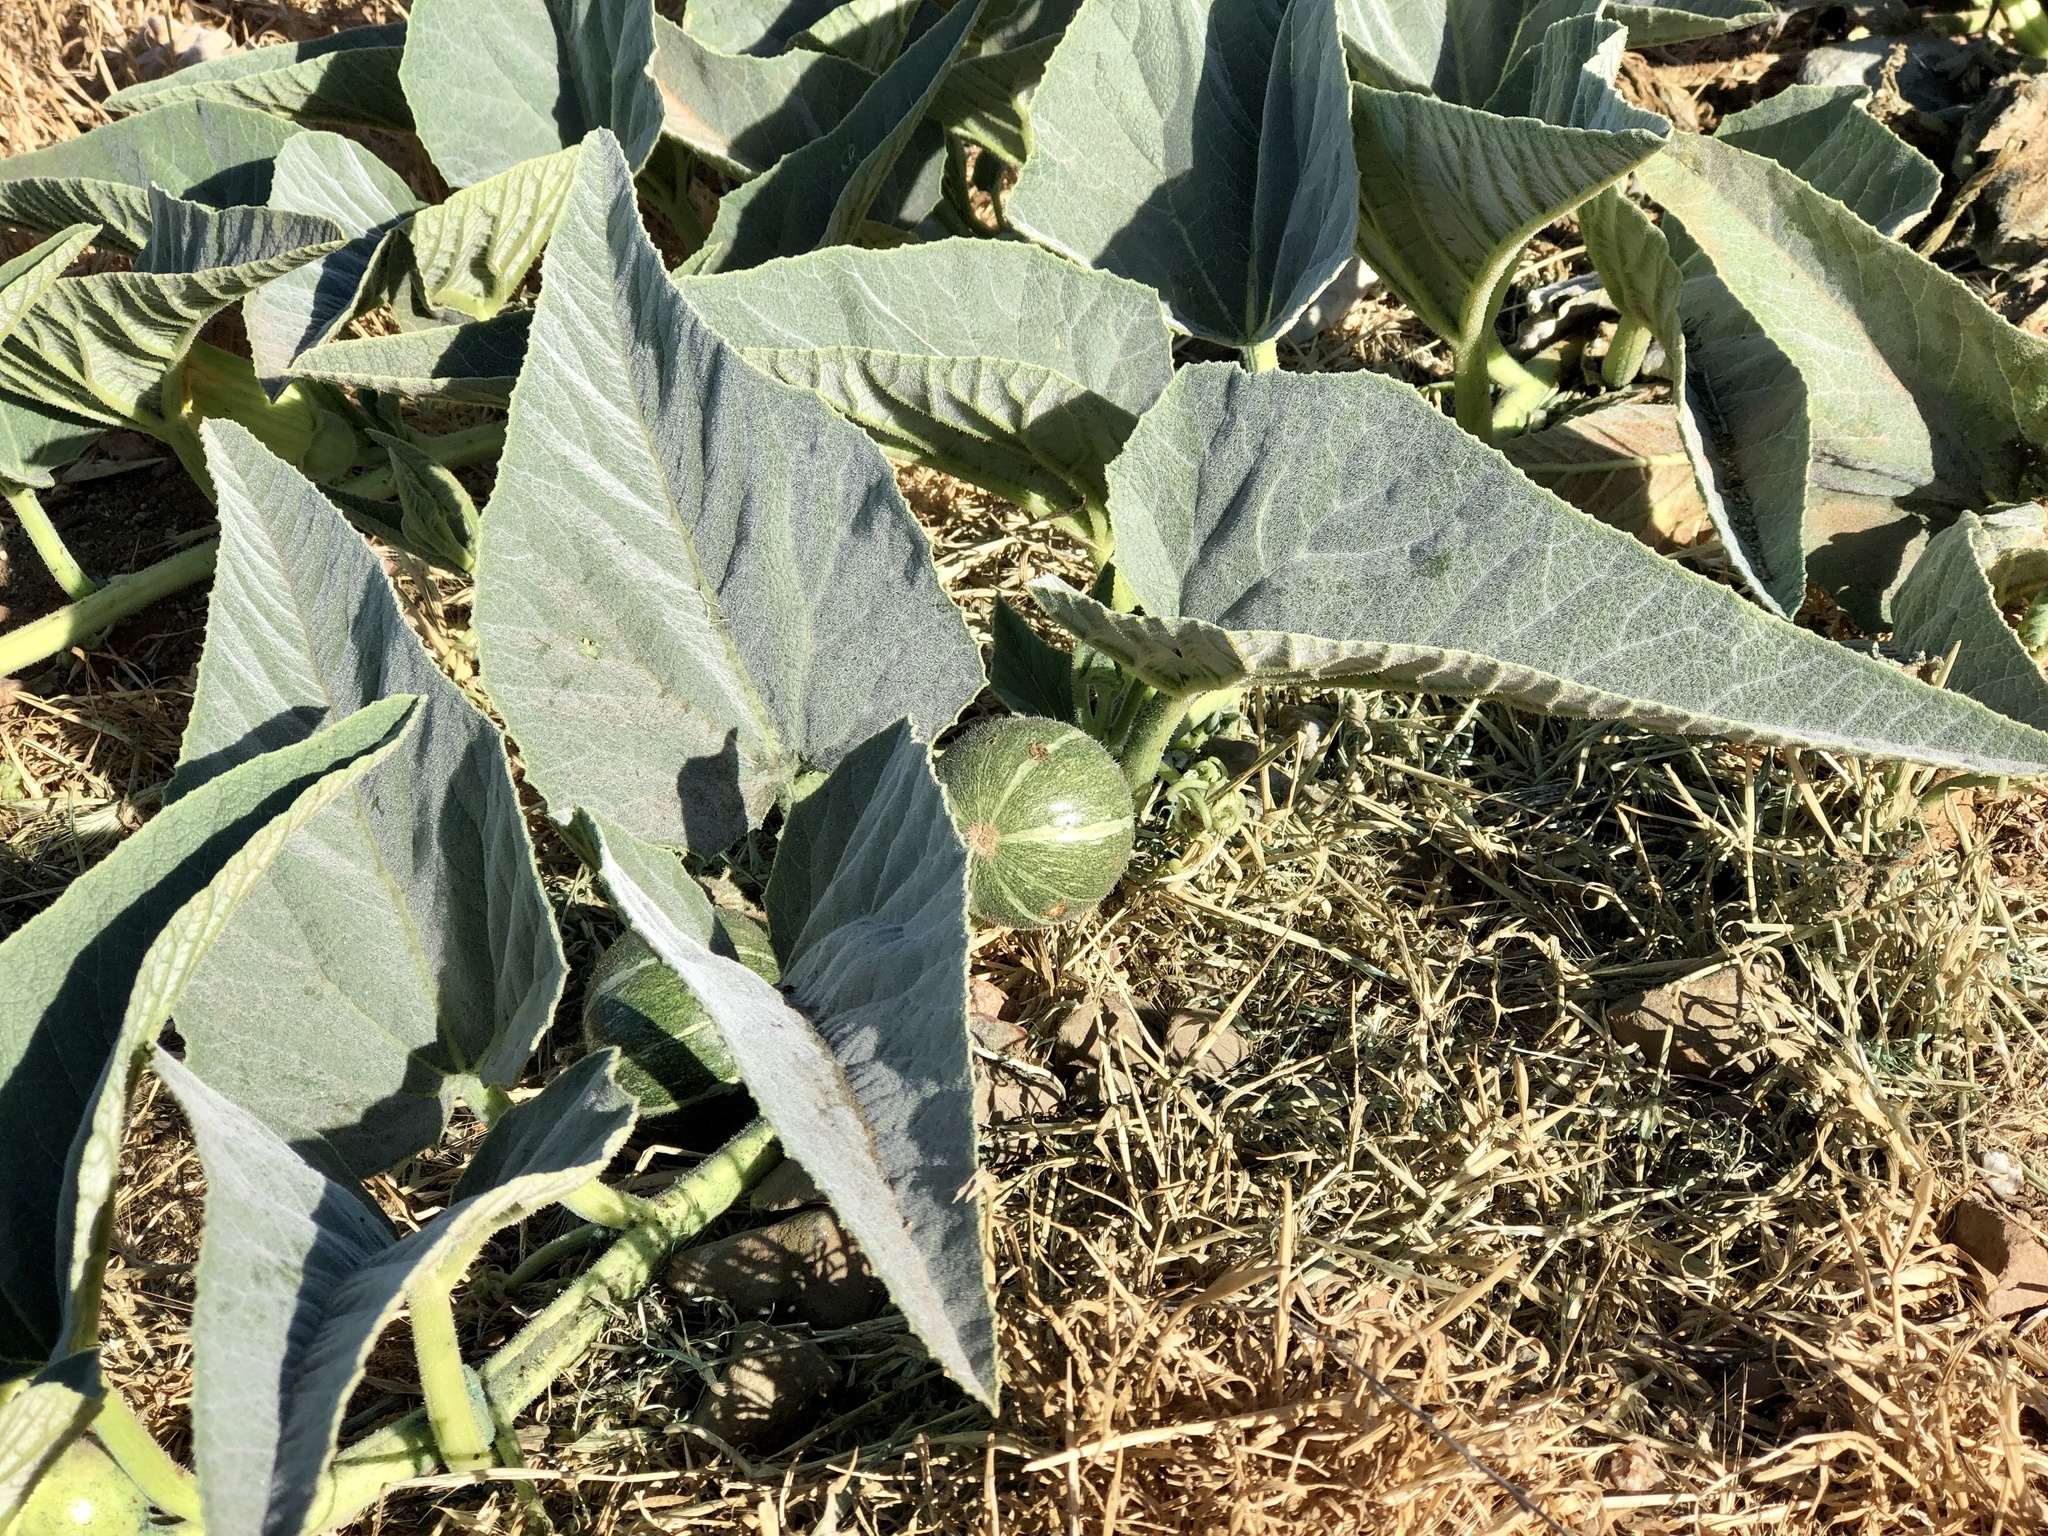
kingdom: Plantae
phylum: Tracheophyta
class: Magnoliopsida
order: Cucurbitales
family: Cucurbitaceae
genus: Cucurbita
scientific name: Cucurbita foetidissima
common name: Buffalo gourd
